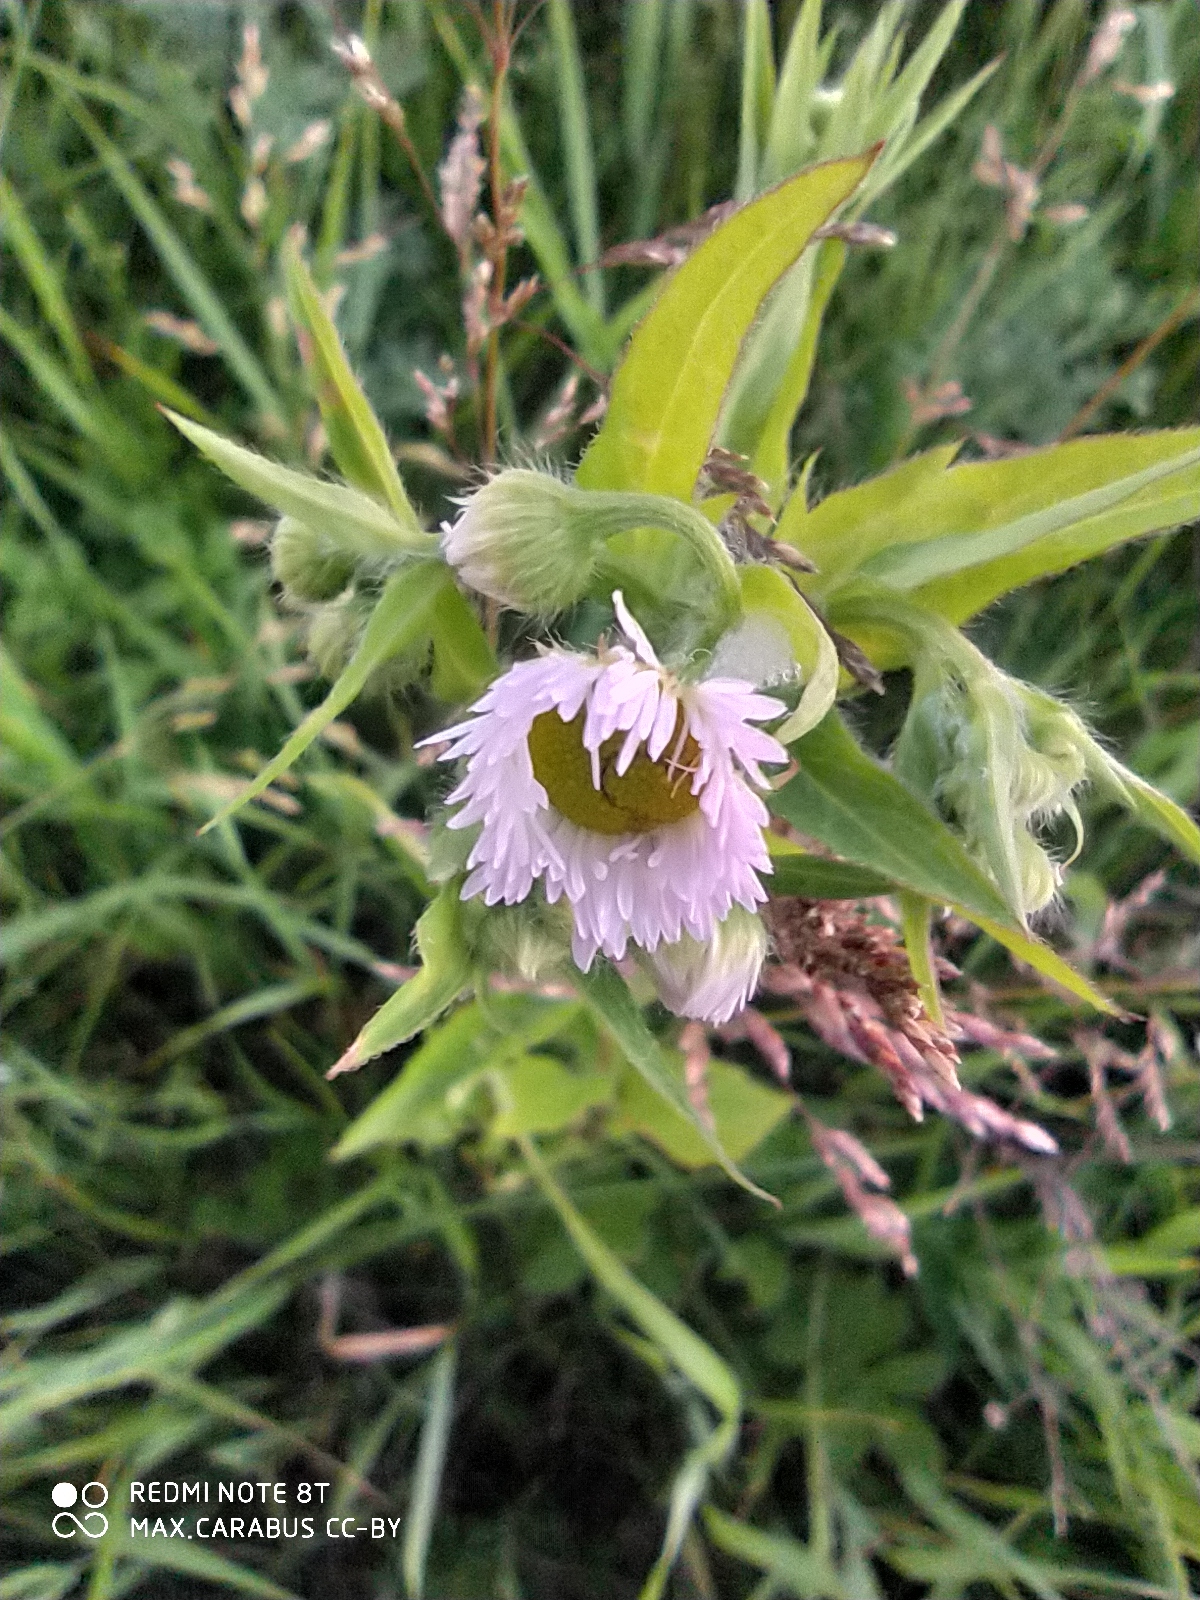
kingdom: Plantae
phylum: Tracheophyta
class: Magnoliopsida
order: Asterales
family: Asteraceae
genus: Erigeron
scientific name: Erigeron annuus
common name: Tall fleabane
